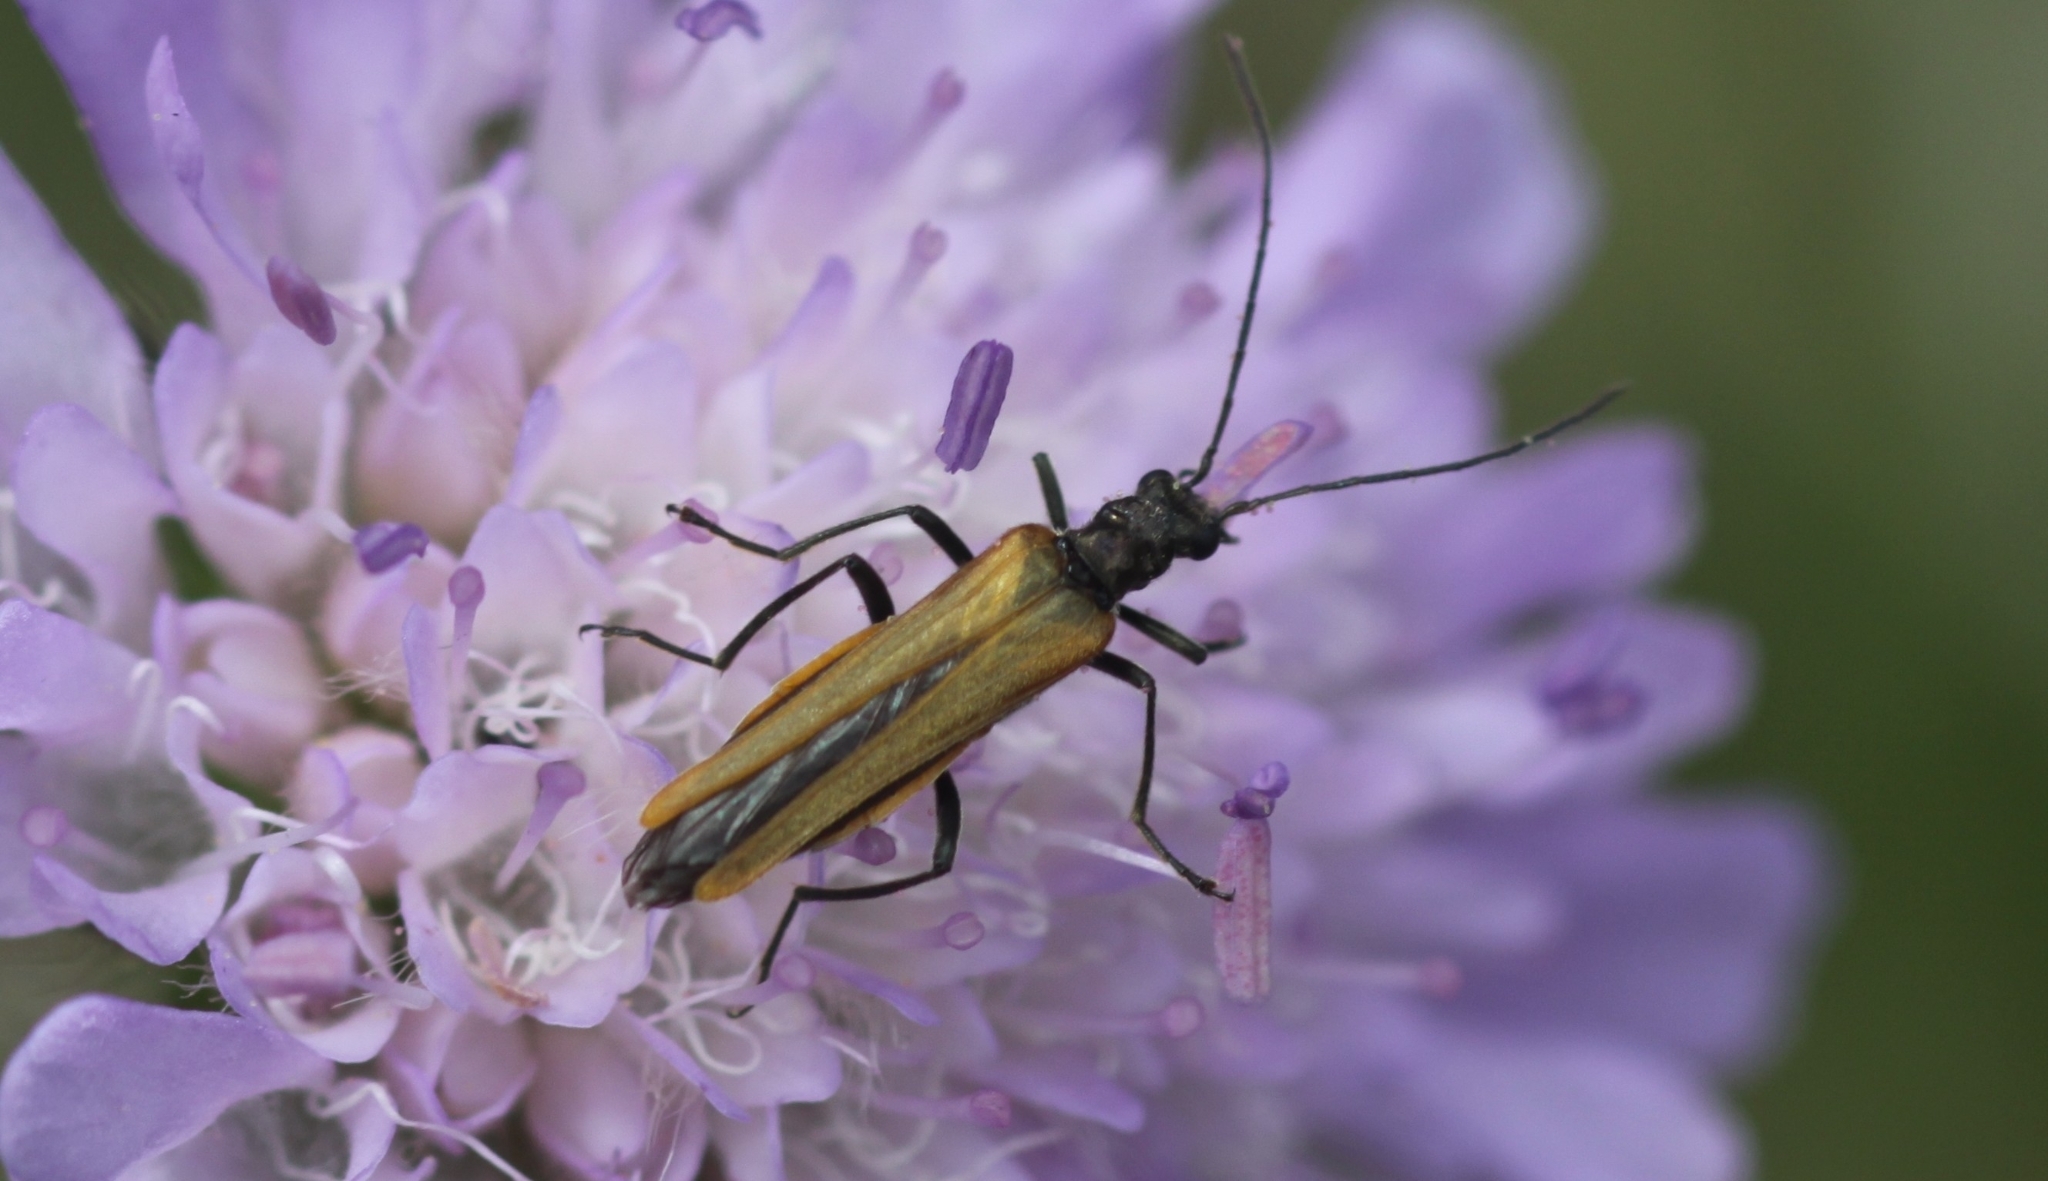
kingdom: Animalia
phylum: Arthropoda
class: Insecta
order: Coleoptera
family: Oedemeridae
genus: Oedemera
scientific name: Oedemera femorata
